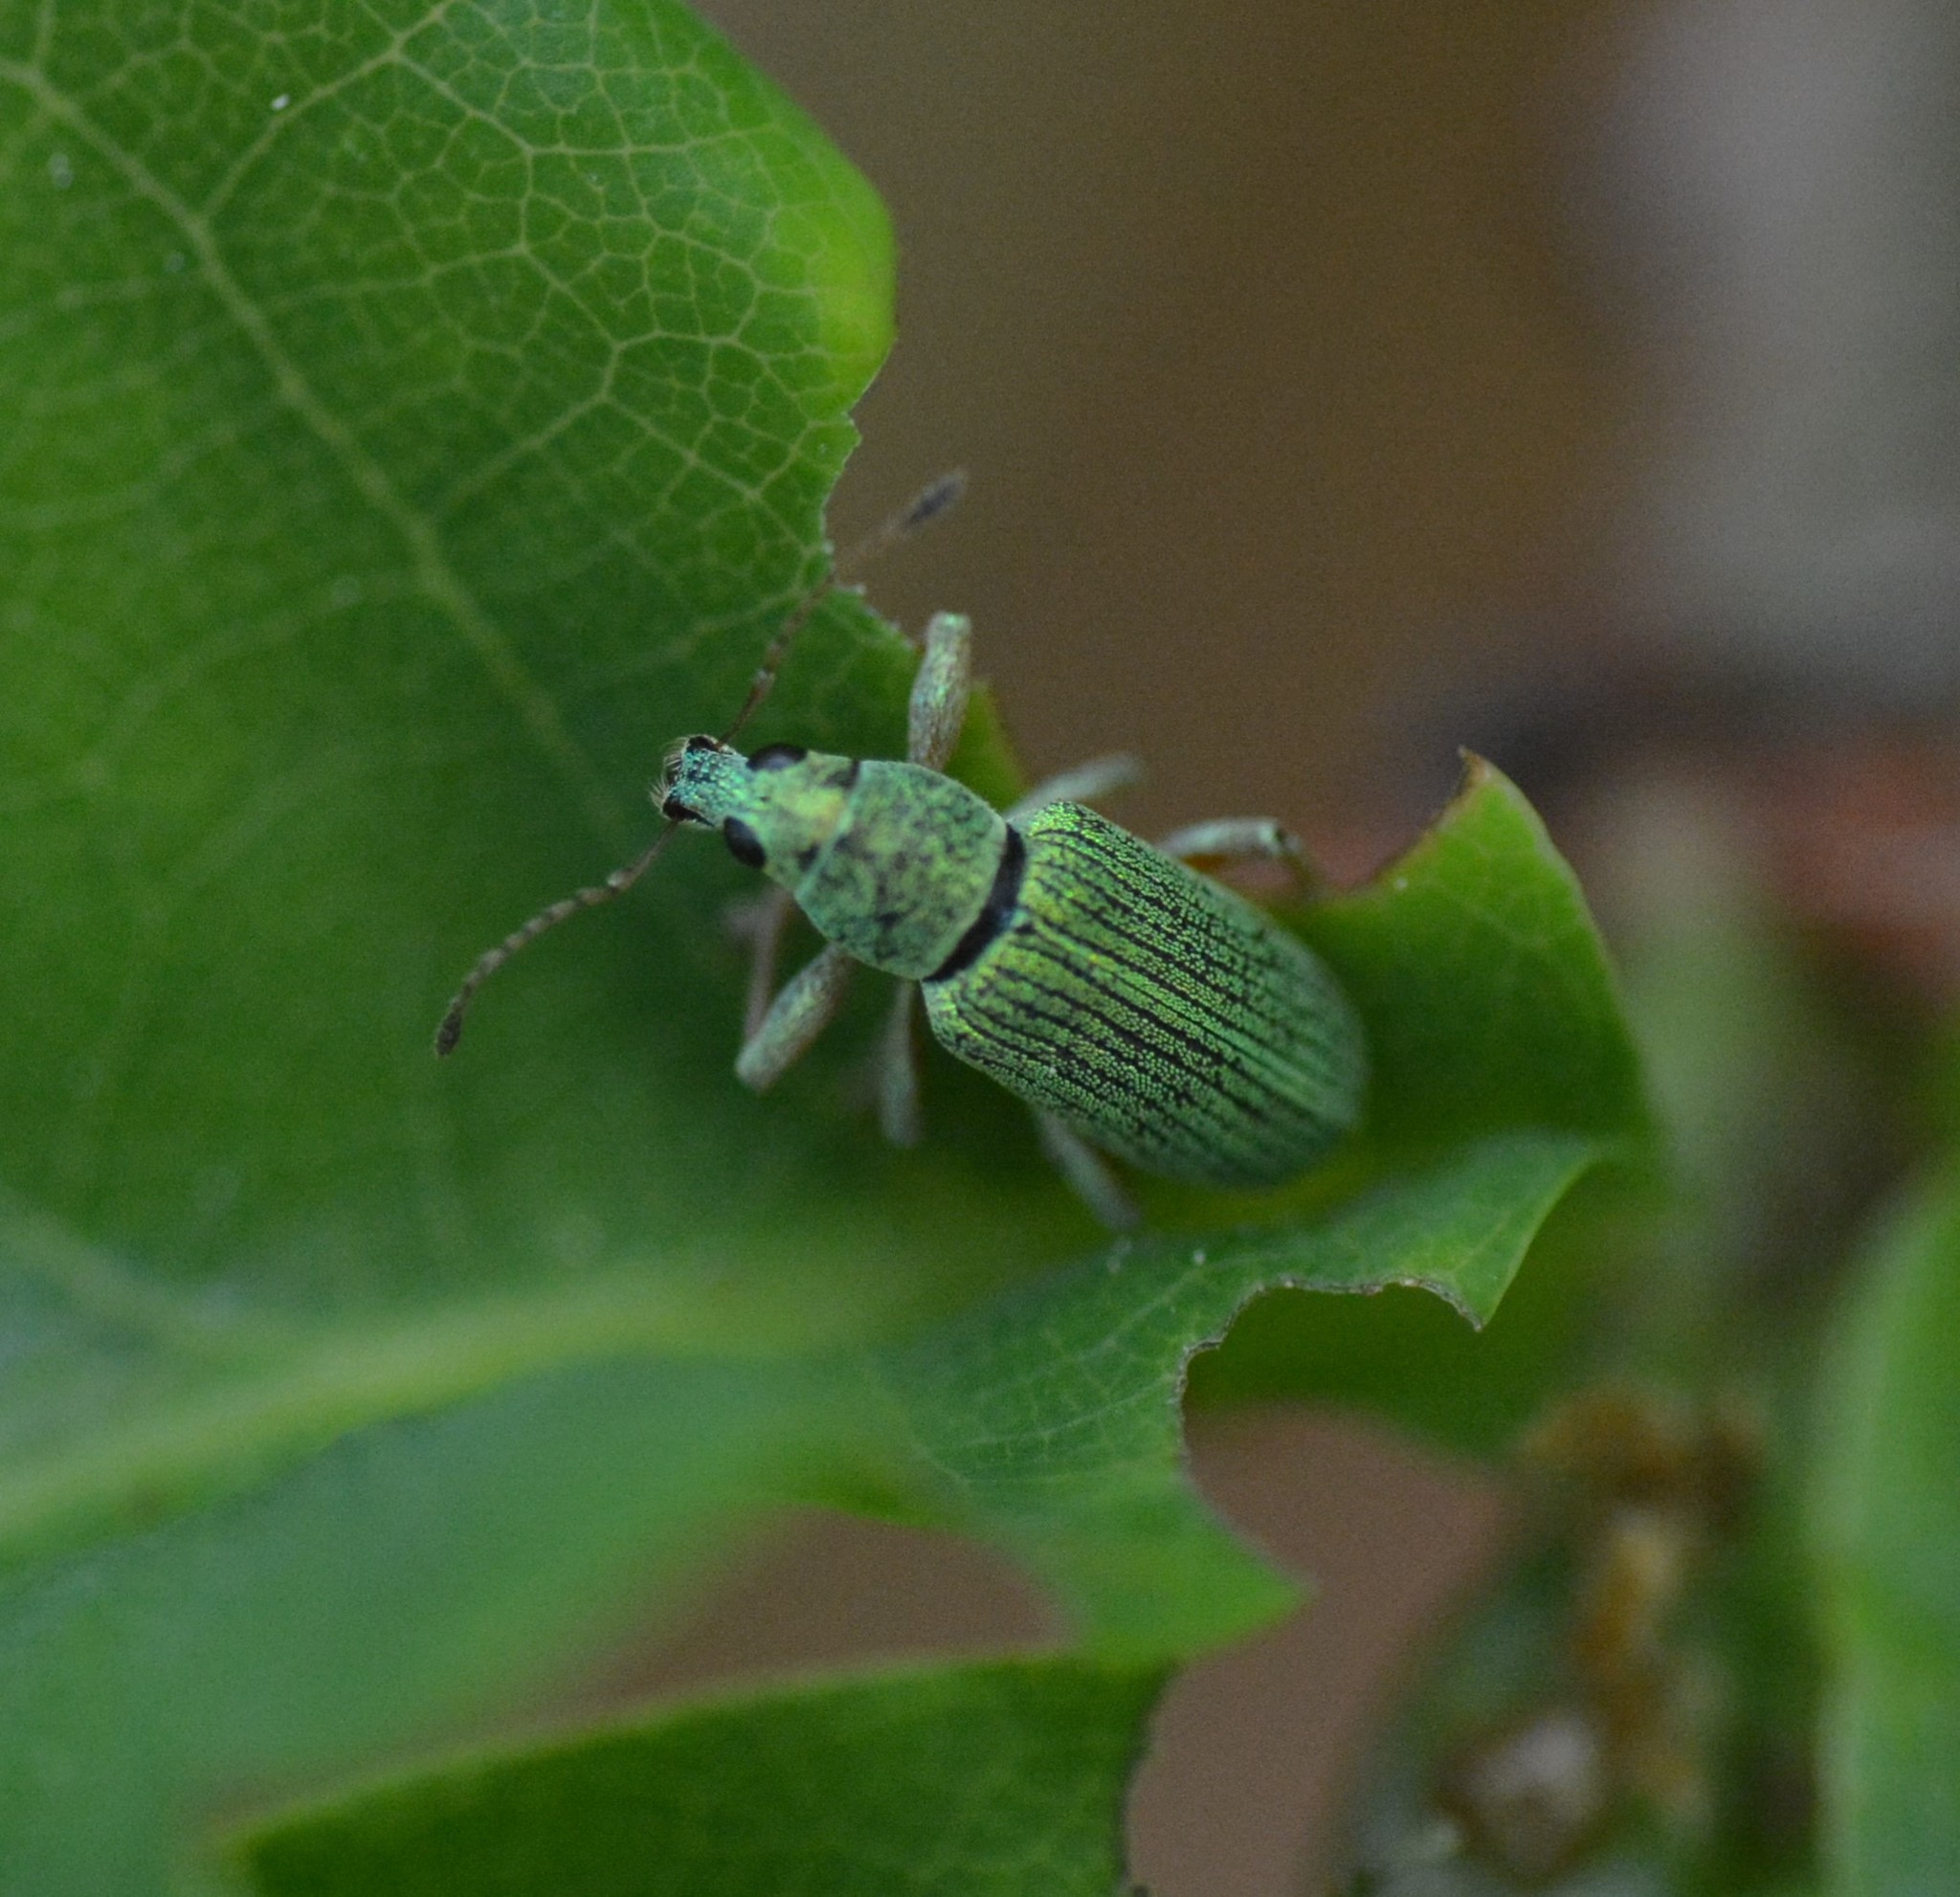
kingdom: Animalia
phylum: Arthropoda
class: Insecta
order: Coleoptera
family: Curculionidae
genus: Polydrusus
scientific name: Polydrusus formosus
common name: Weevil
